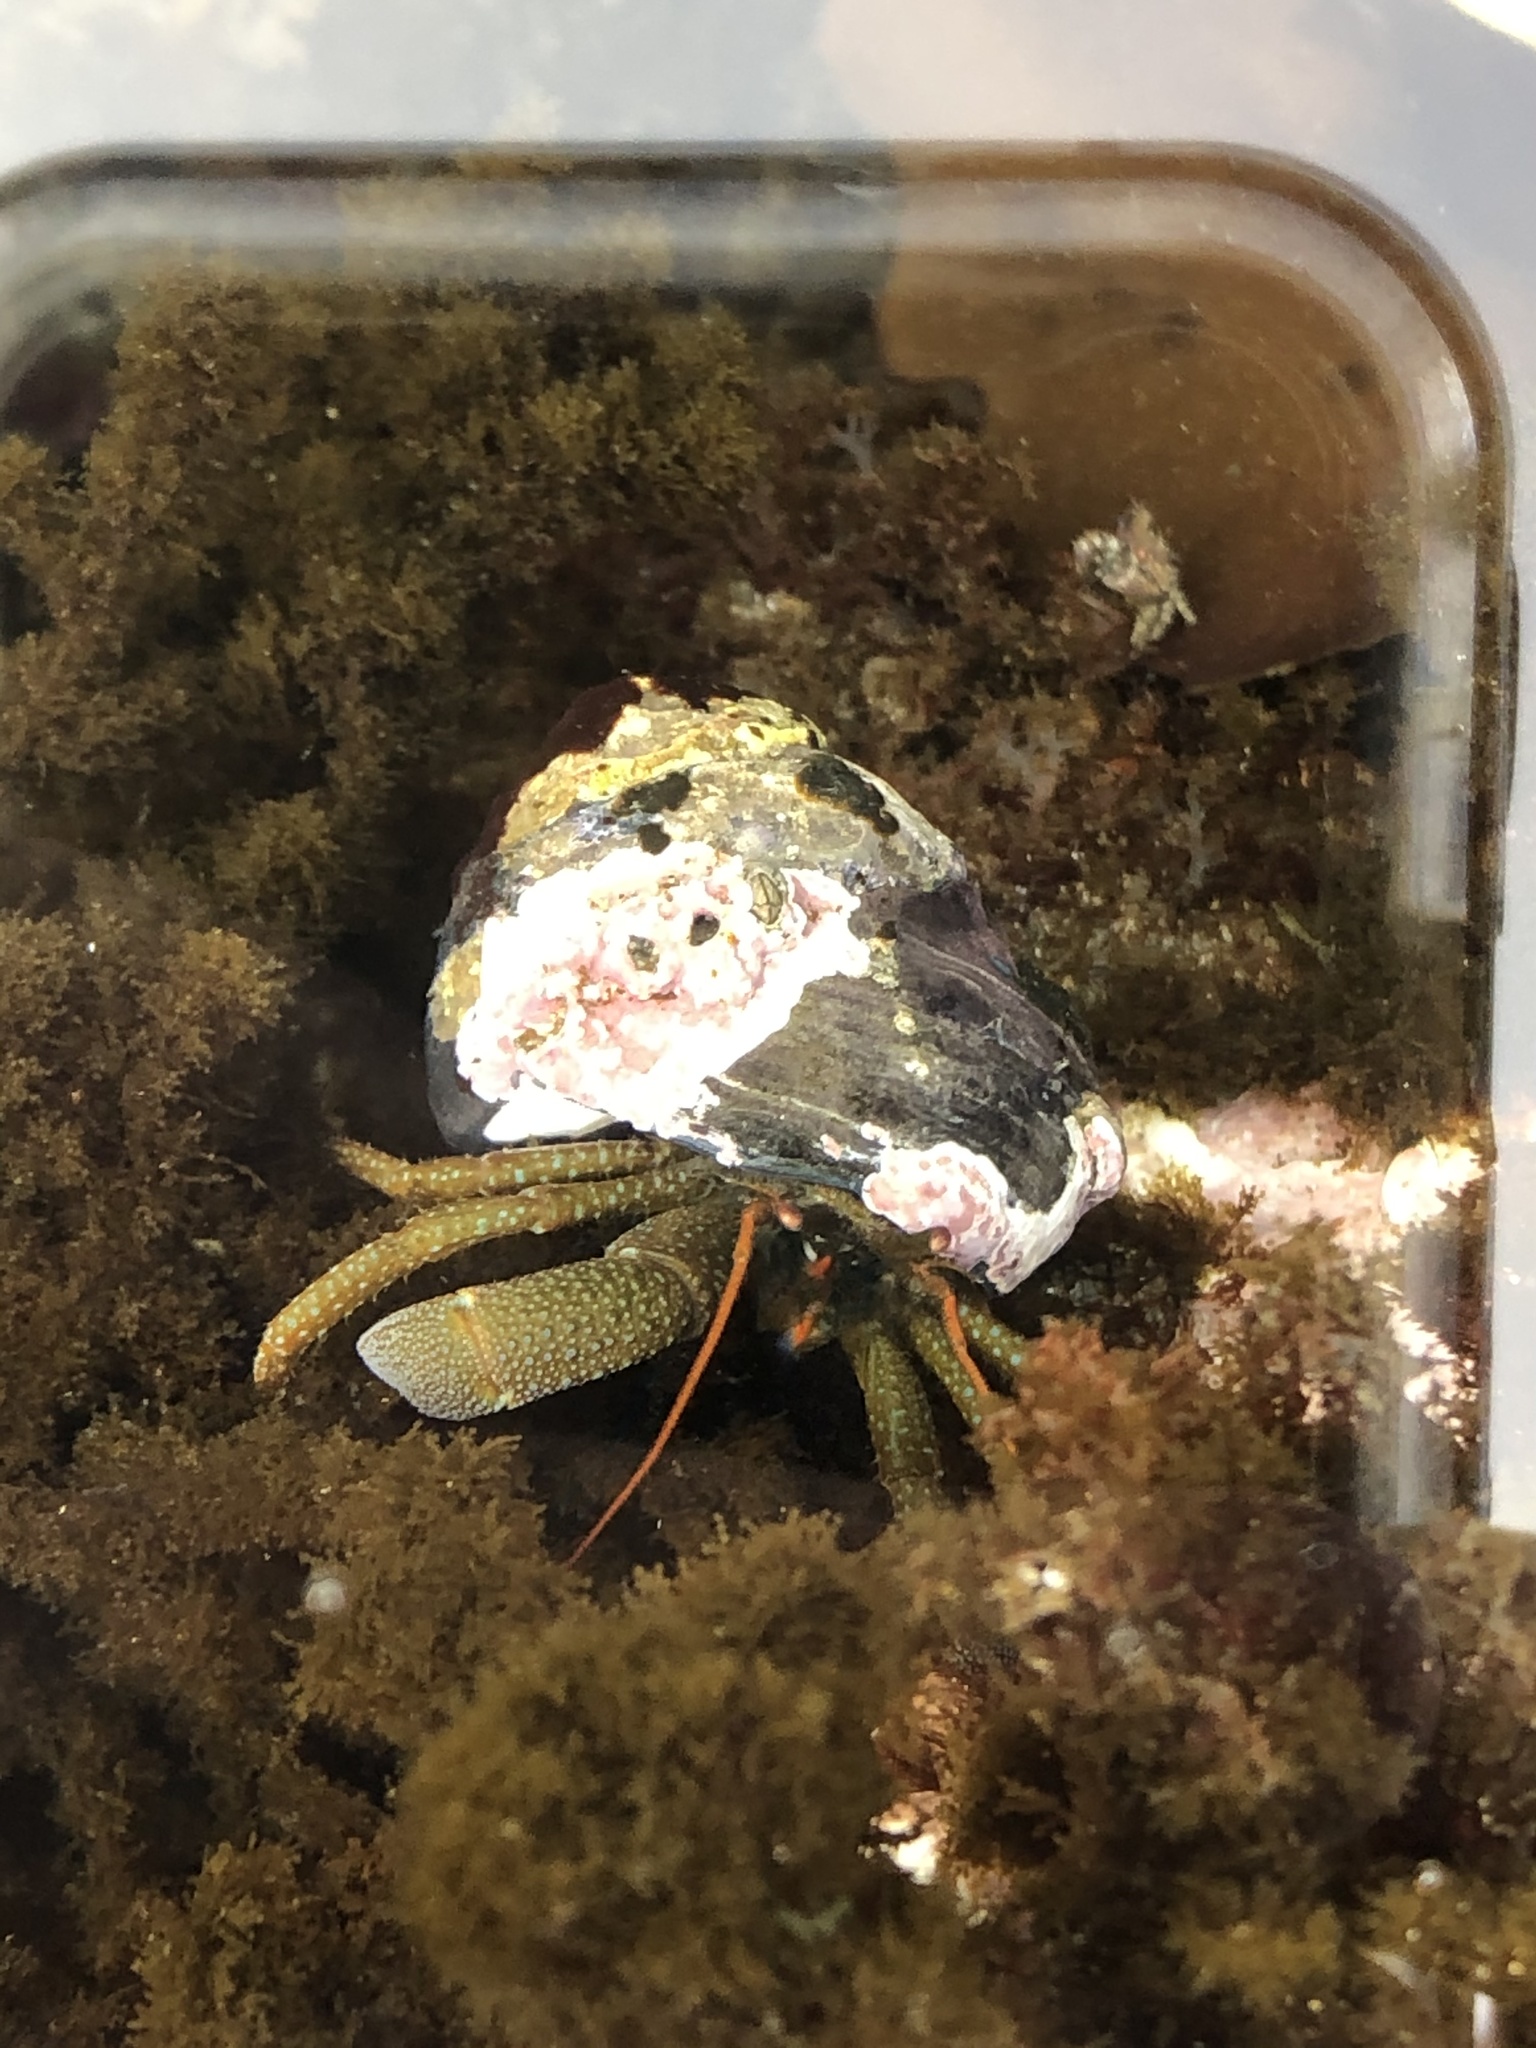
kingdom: Animalia
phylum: Arthropoda
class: Malacostraca
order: Decapoda
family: Paguridae
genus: Pagurus
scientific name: Pagurus granosimanus
